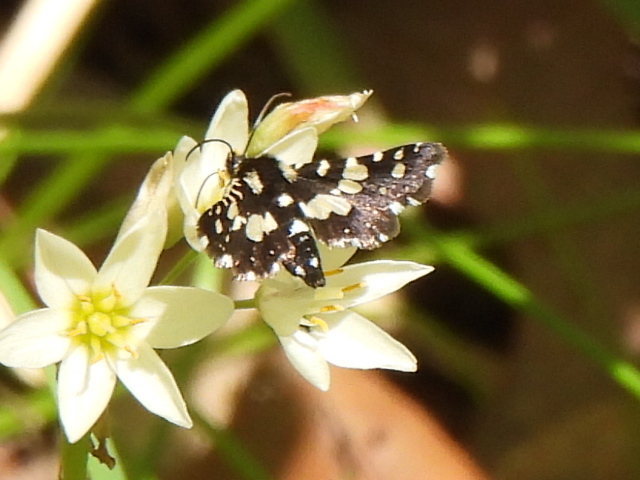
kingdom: Animalia
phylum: Arthropoda
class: Insecta
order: Lepidoptera
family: Thyrididae
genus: Pseudothyris
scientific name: Pseudothyris sepulchralis
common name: Mournful thyris moth
